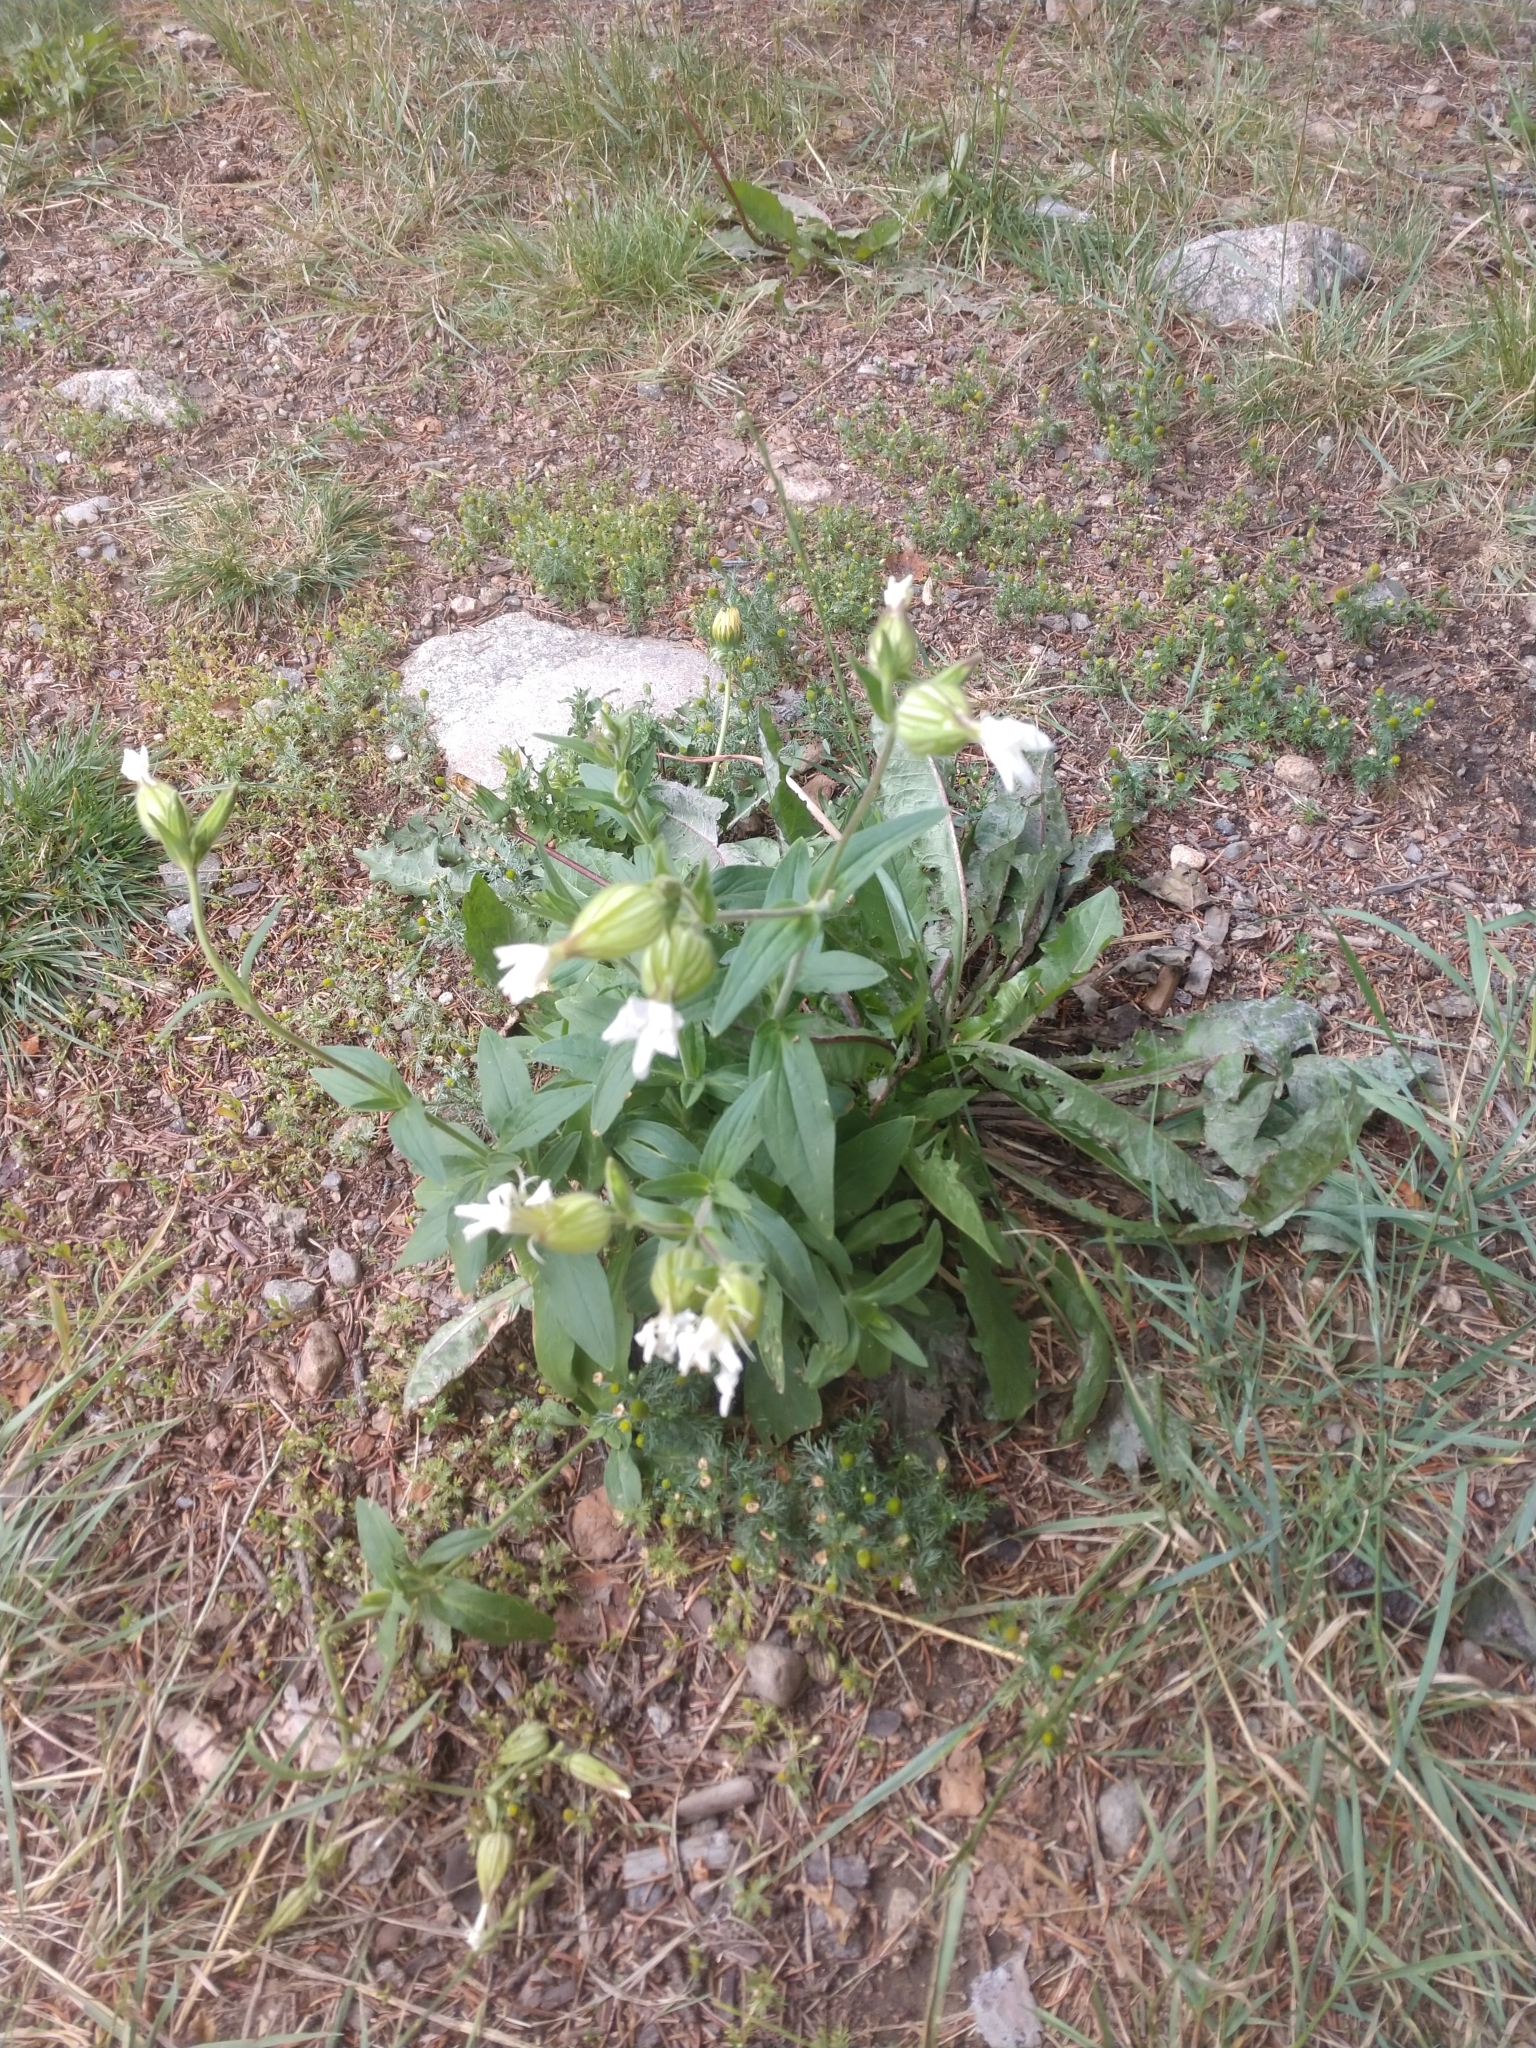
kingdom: Plantae
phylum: Tracheophyta
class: Magnoliopsida
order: Caryophyllales
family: Caryophyllaceae
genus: Silene
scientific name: Silene latifolia
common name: White campion
